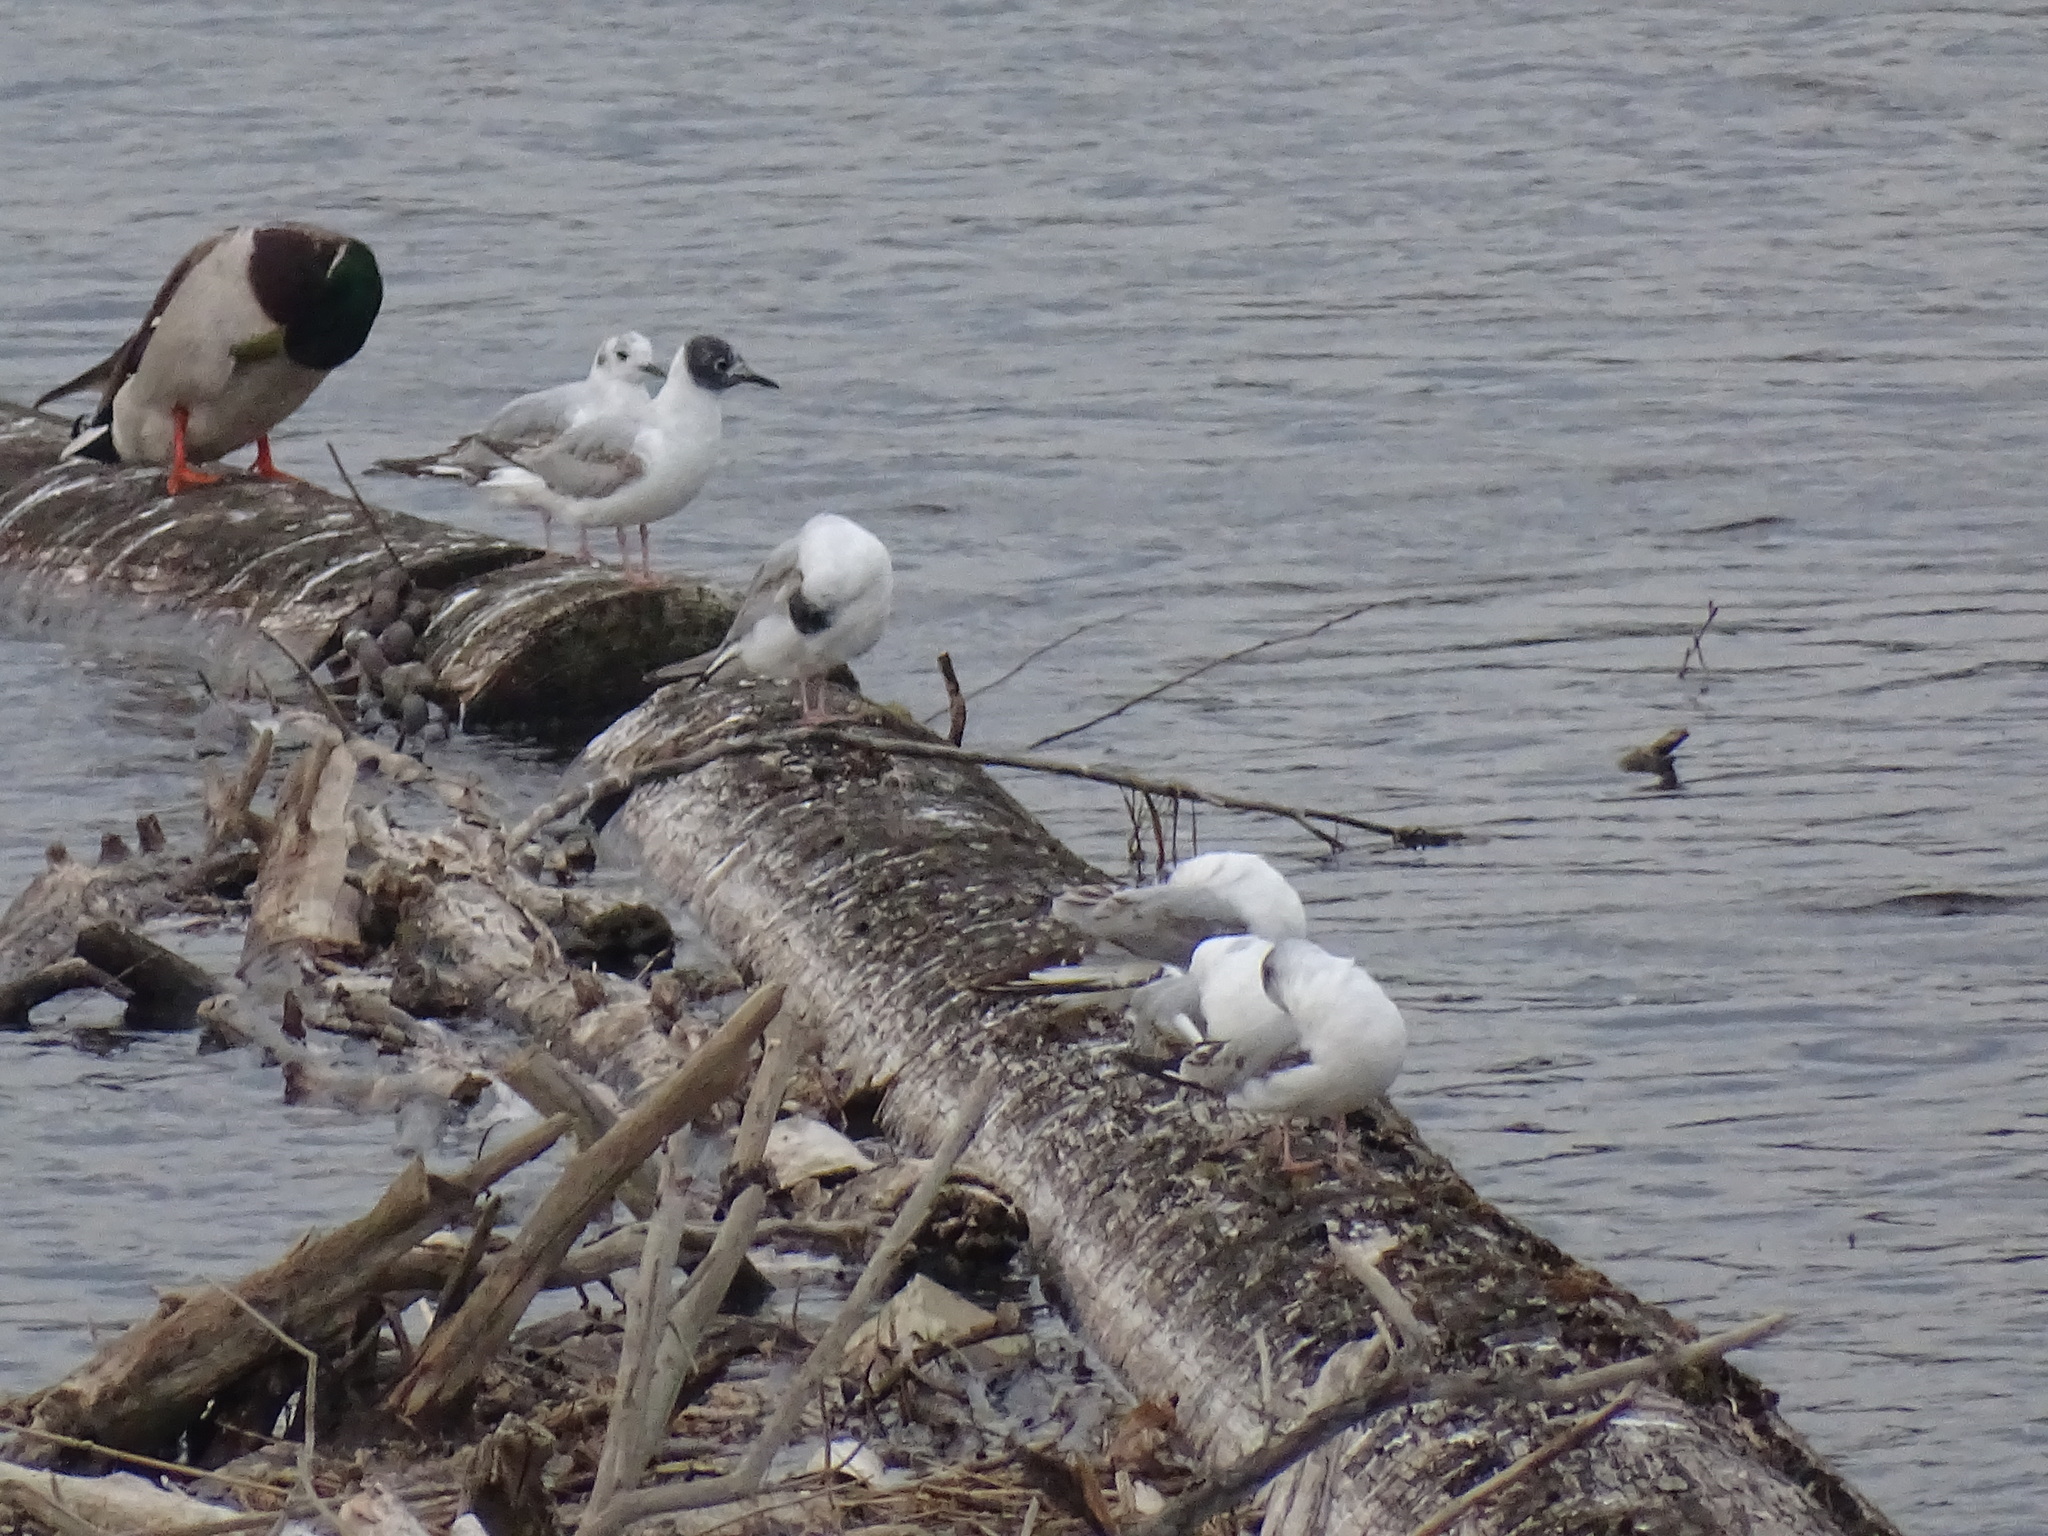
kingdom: Animalia
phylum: Chordata
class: Aves
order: Charadriiformes
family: Laridae
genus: Chroicocephalus
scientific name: Chroicocephalus philadelphia
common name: Bonaparte's gull
